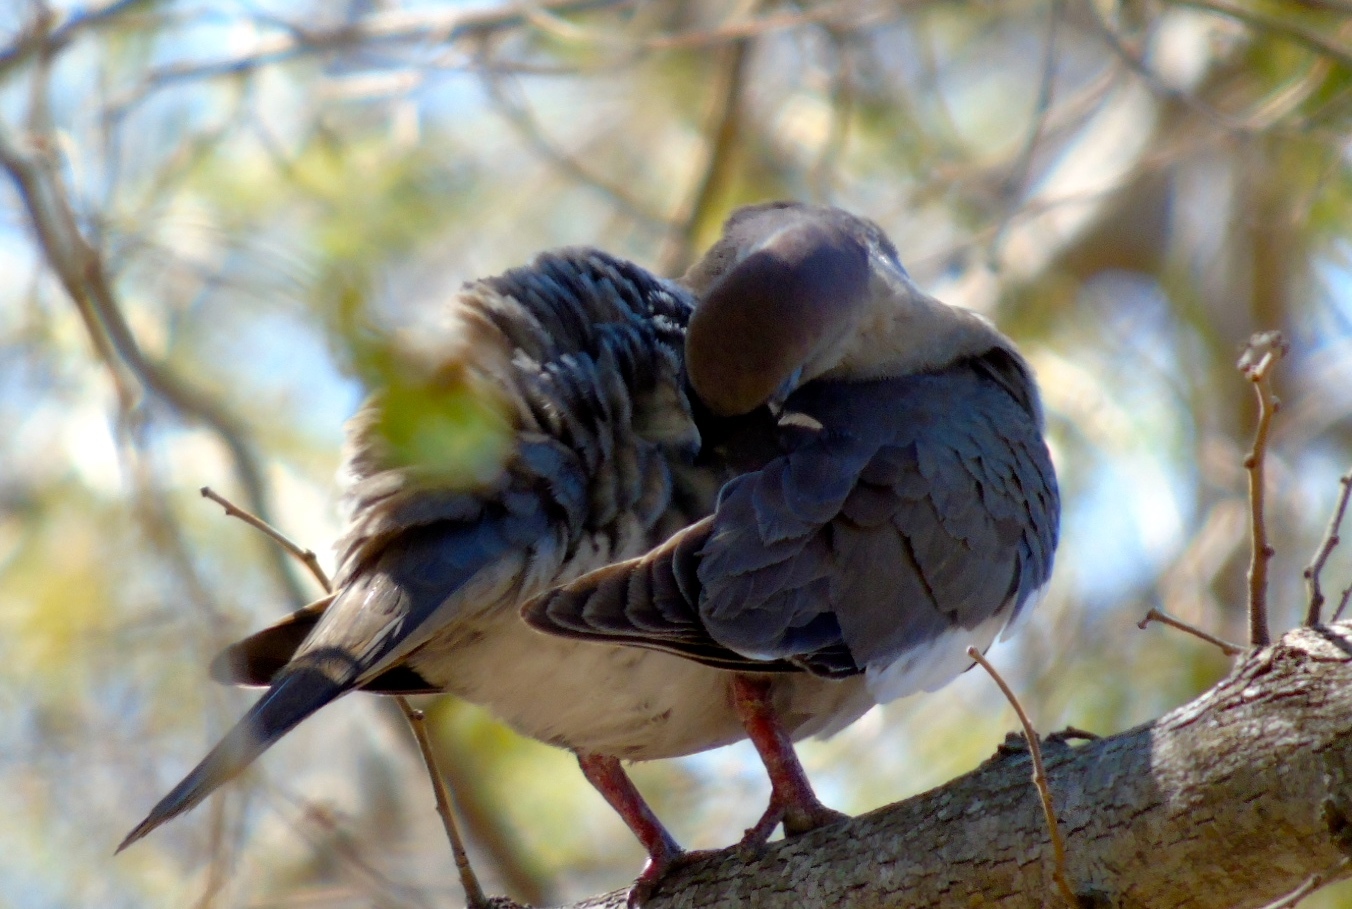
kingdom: Animalia
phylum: Chordata
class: Aves
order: Columbiformes
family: Columbidae
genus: Zenaida
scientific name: Zenaida asiatica
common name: White-winged dove
